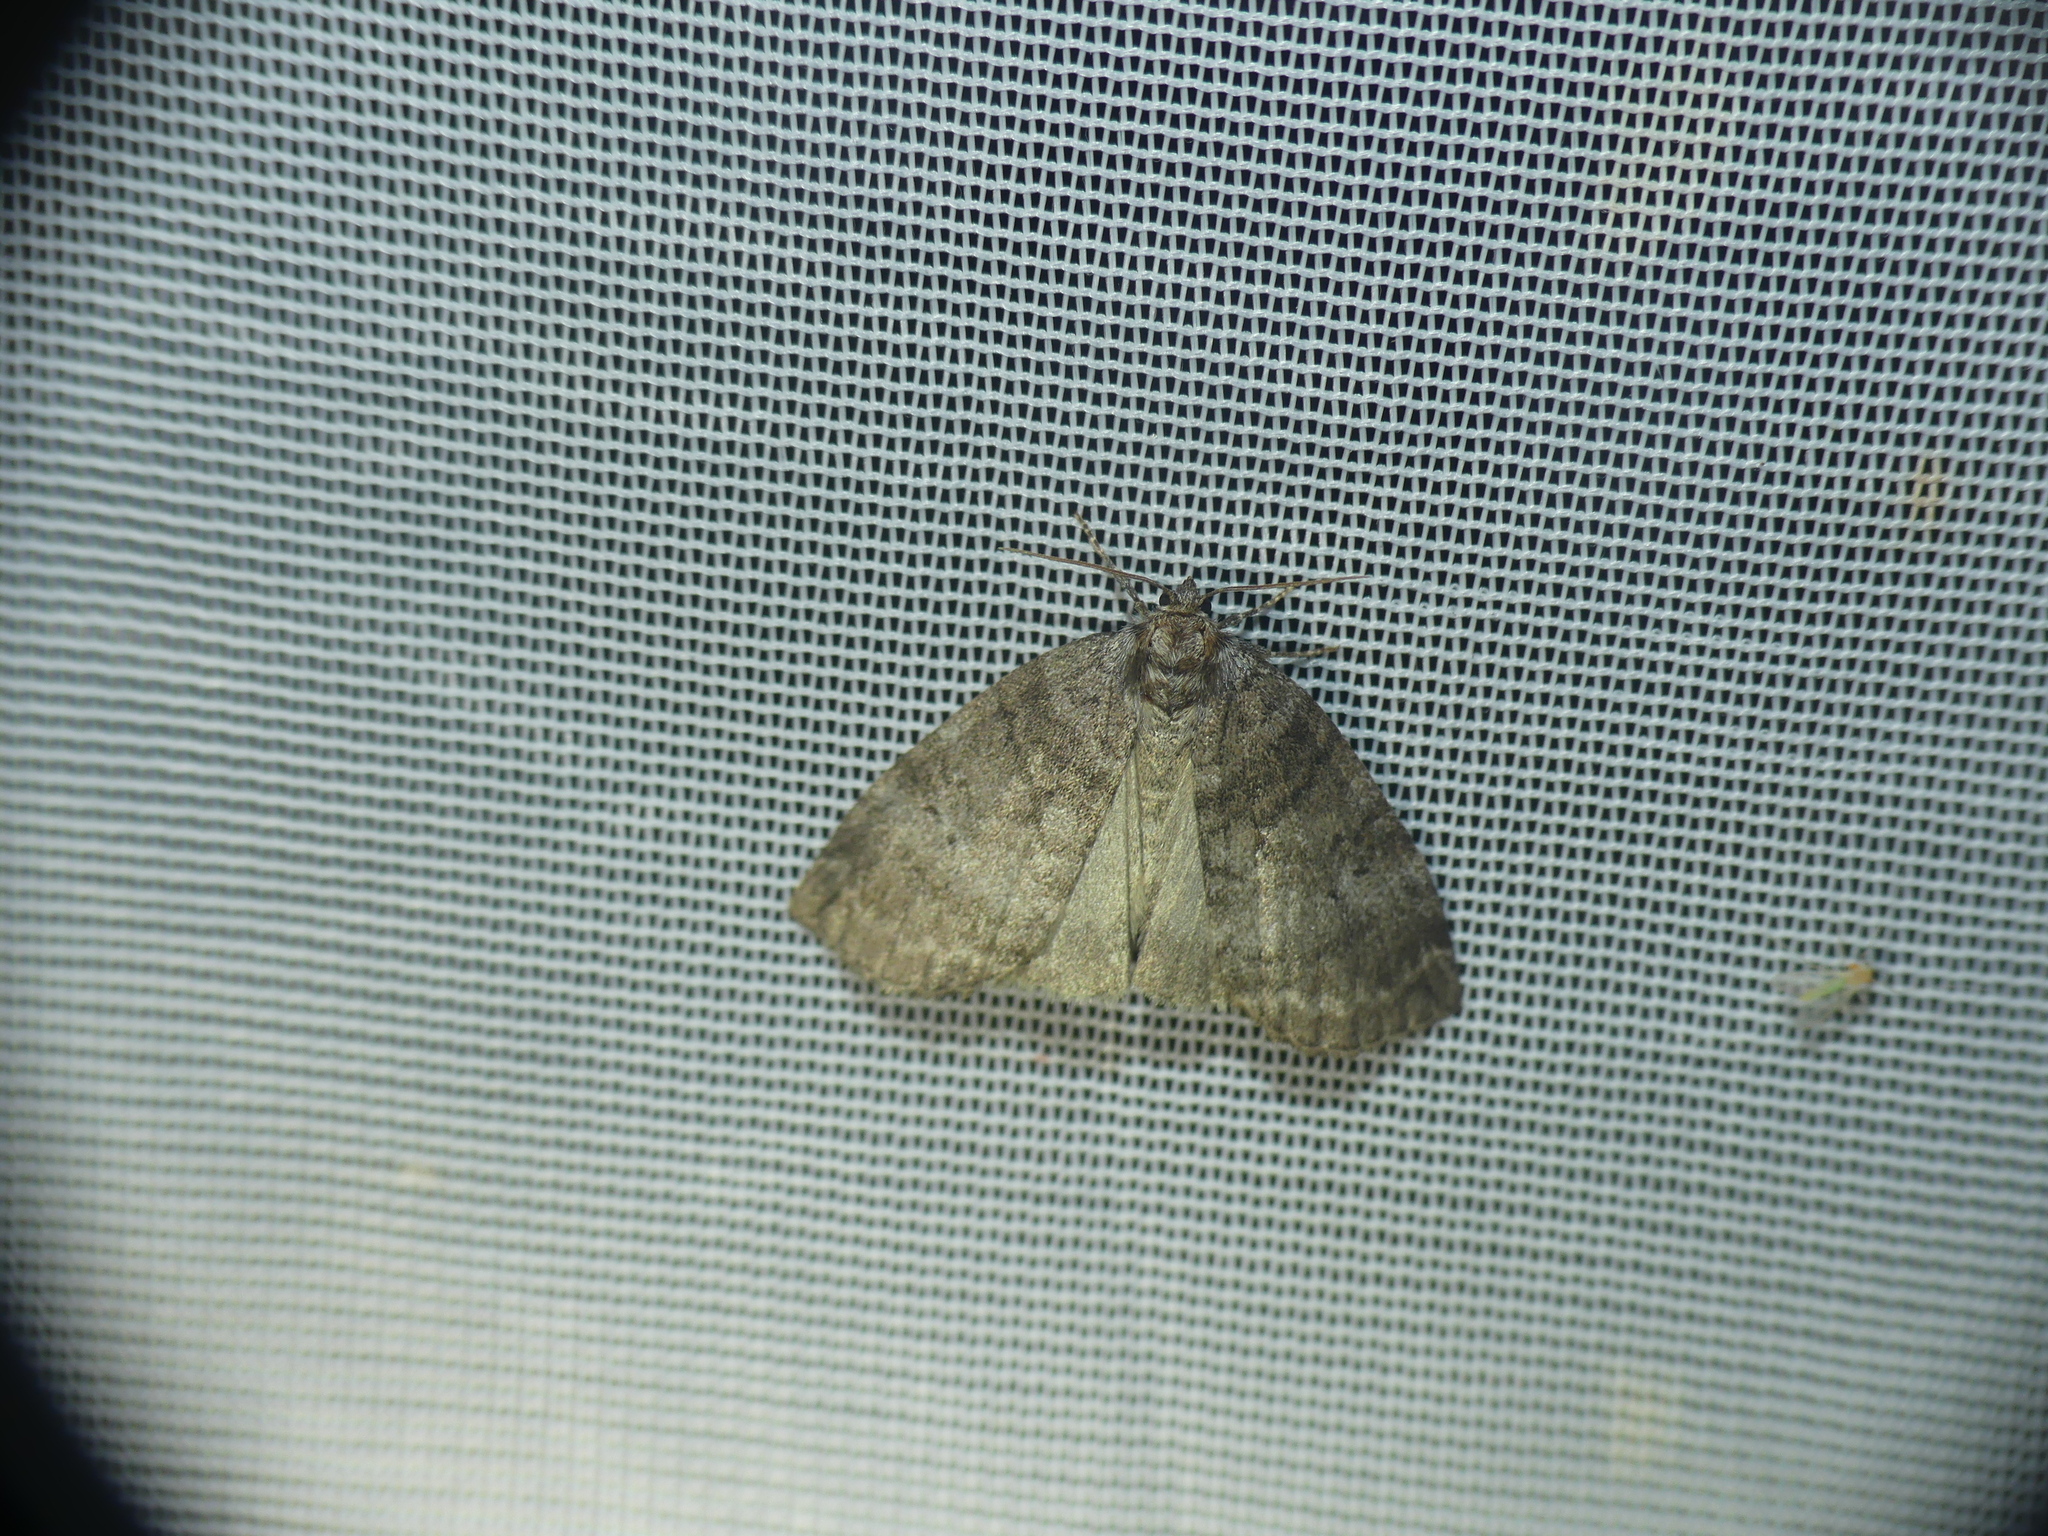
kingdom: Animalia
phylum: Arthropoda
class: Insecta
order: Lepidoptera
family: Drepanidae
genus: Ochropacha
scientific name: Ochropacha duplaris
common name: Common lutestring
